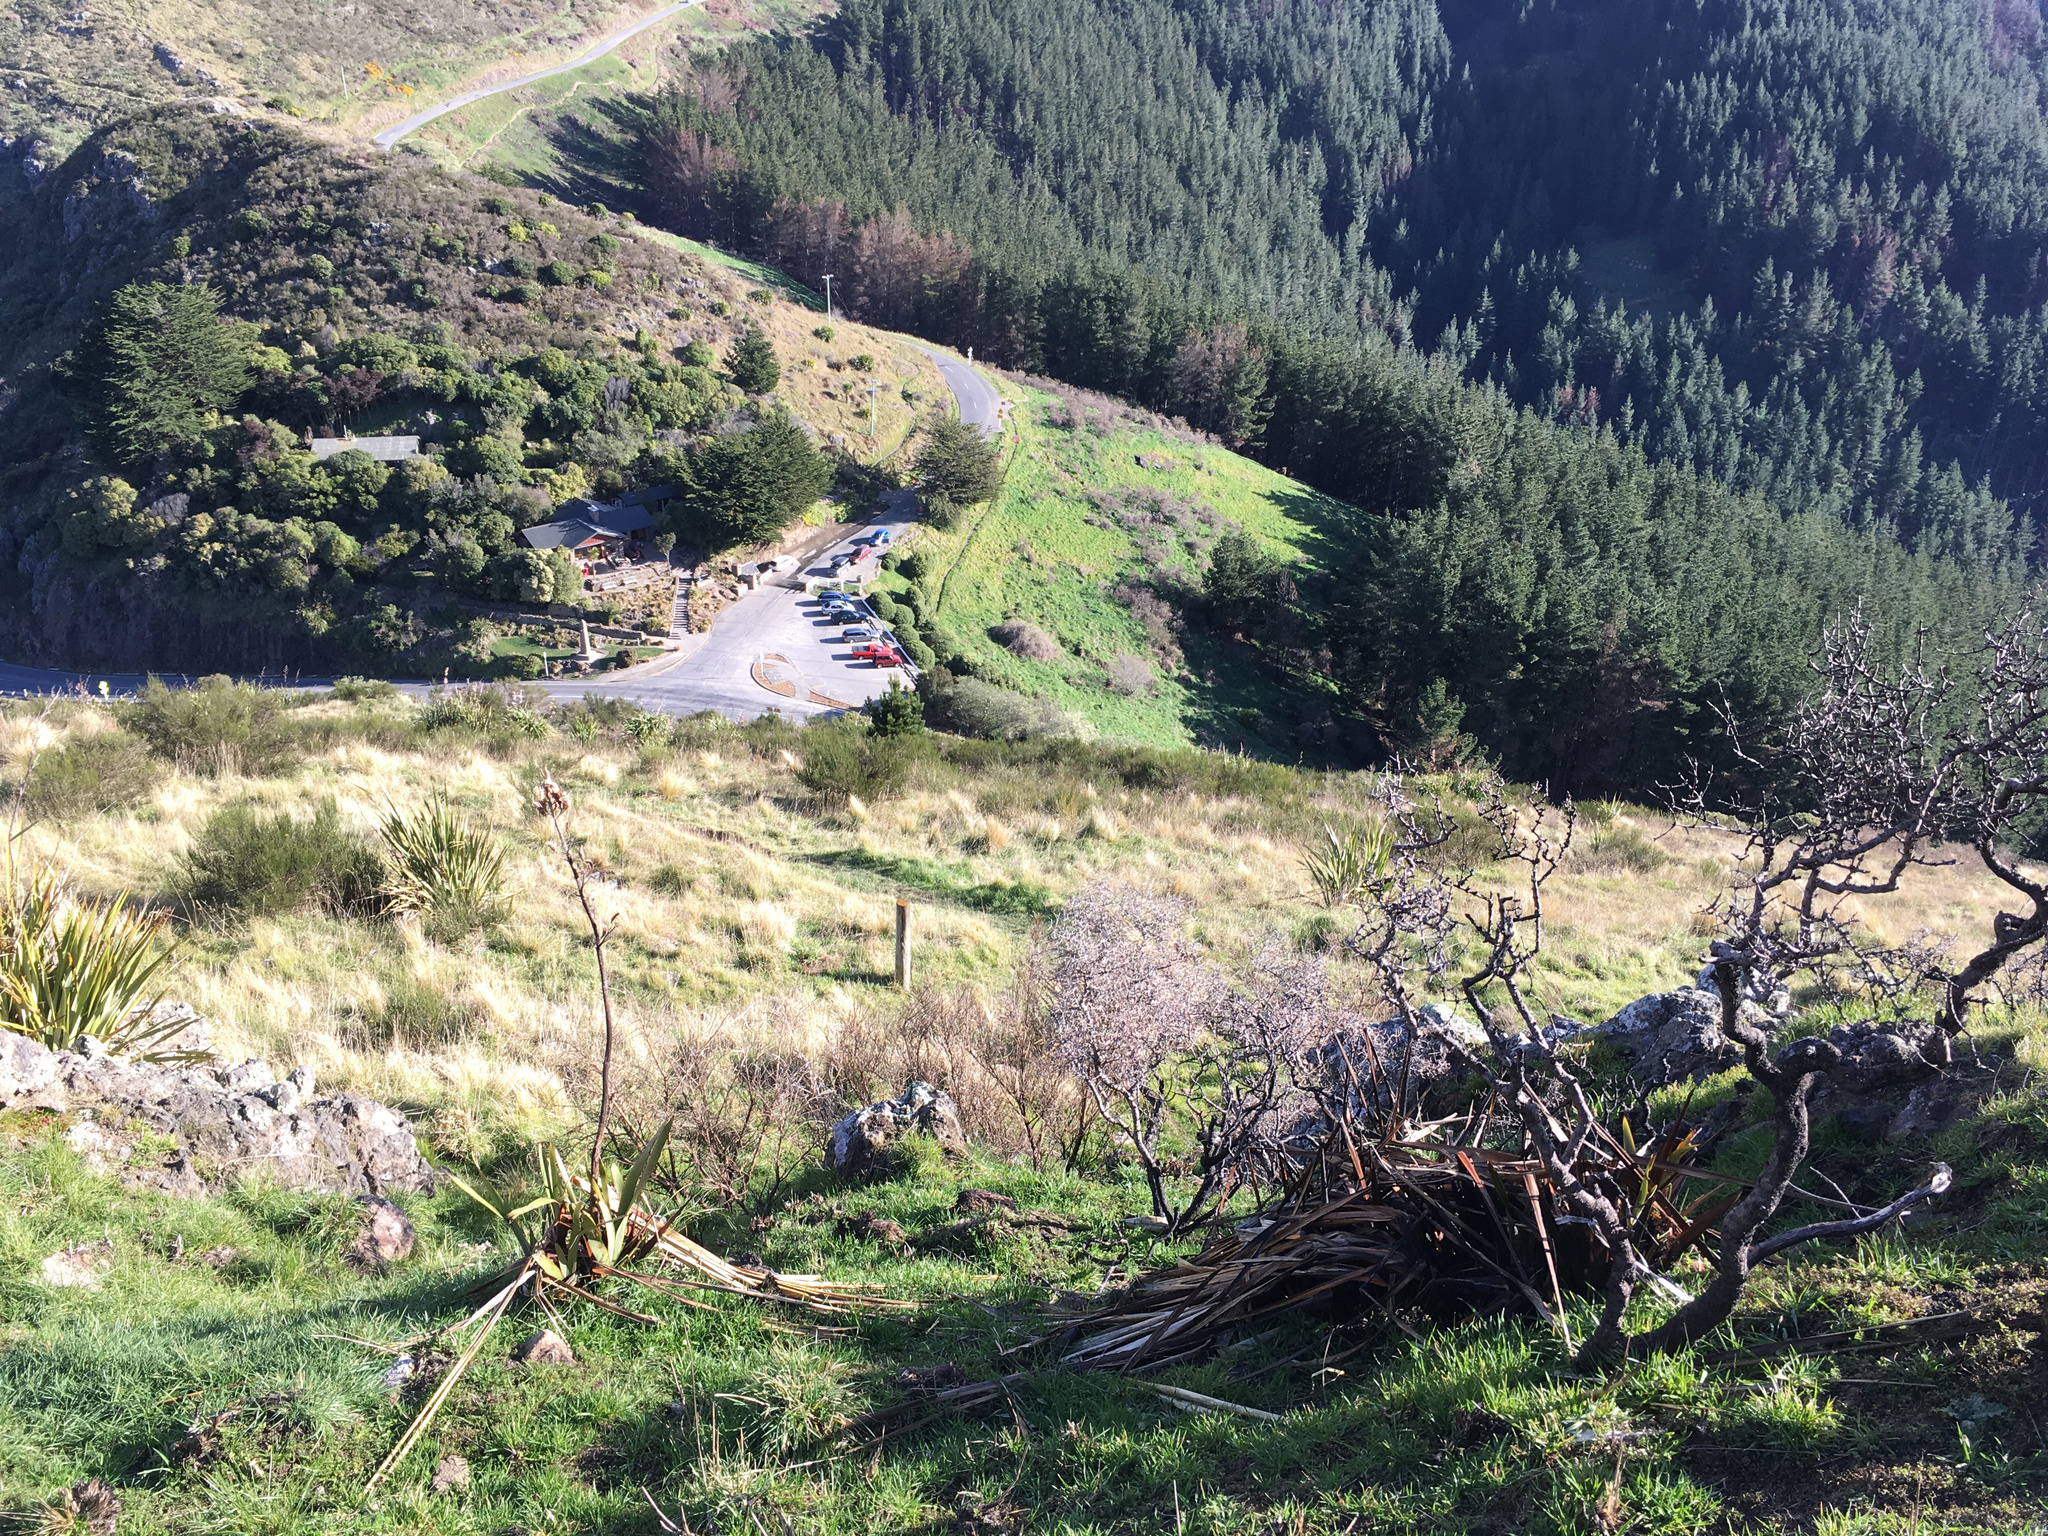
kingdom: Plantae
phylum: Tracheophyta
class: Liliopsida
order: Asparagales
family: Asphodelaceae
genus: Phormium
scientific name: Phormium tenax
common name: New zealand flax
